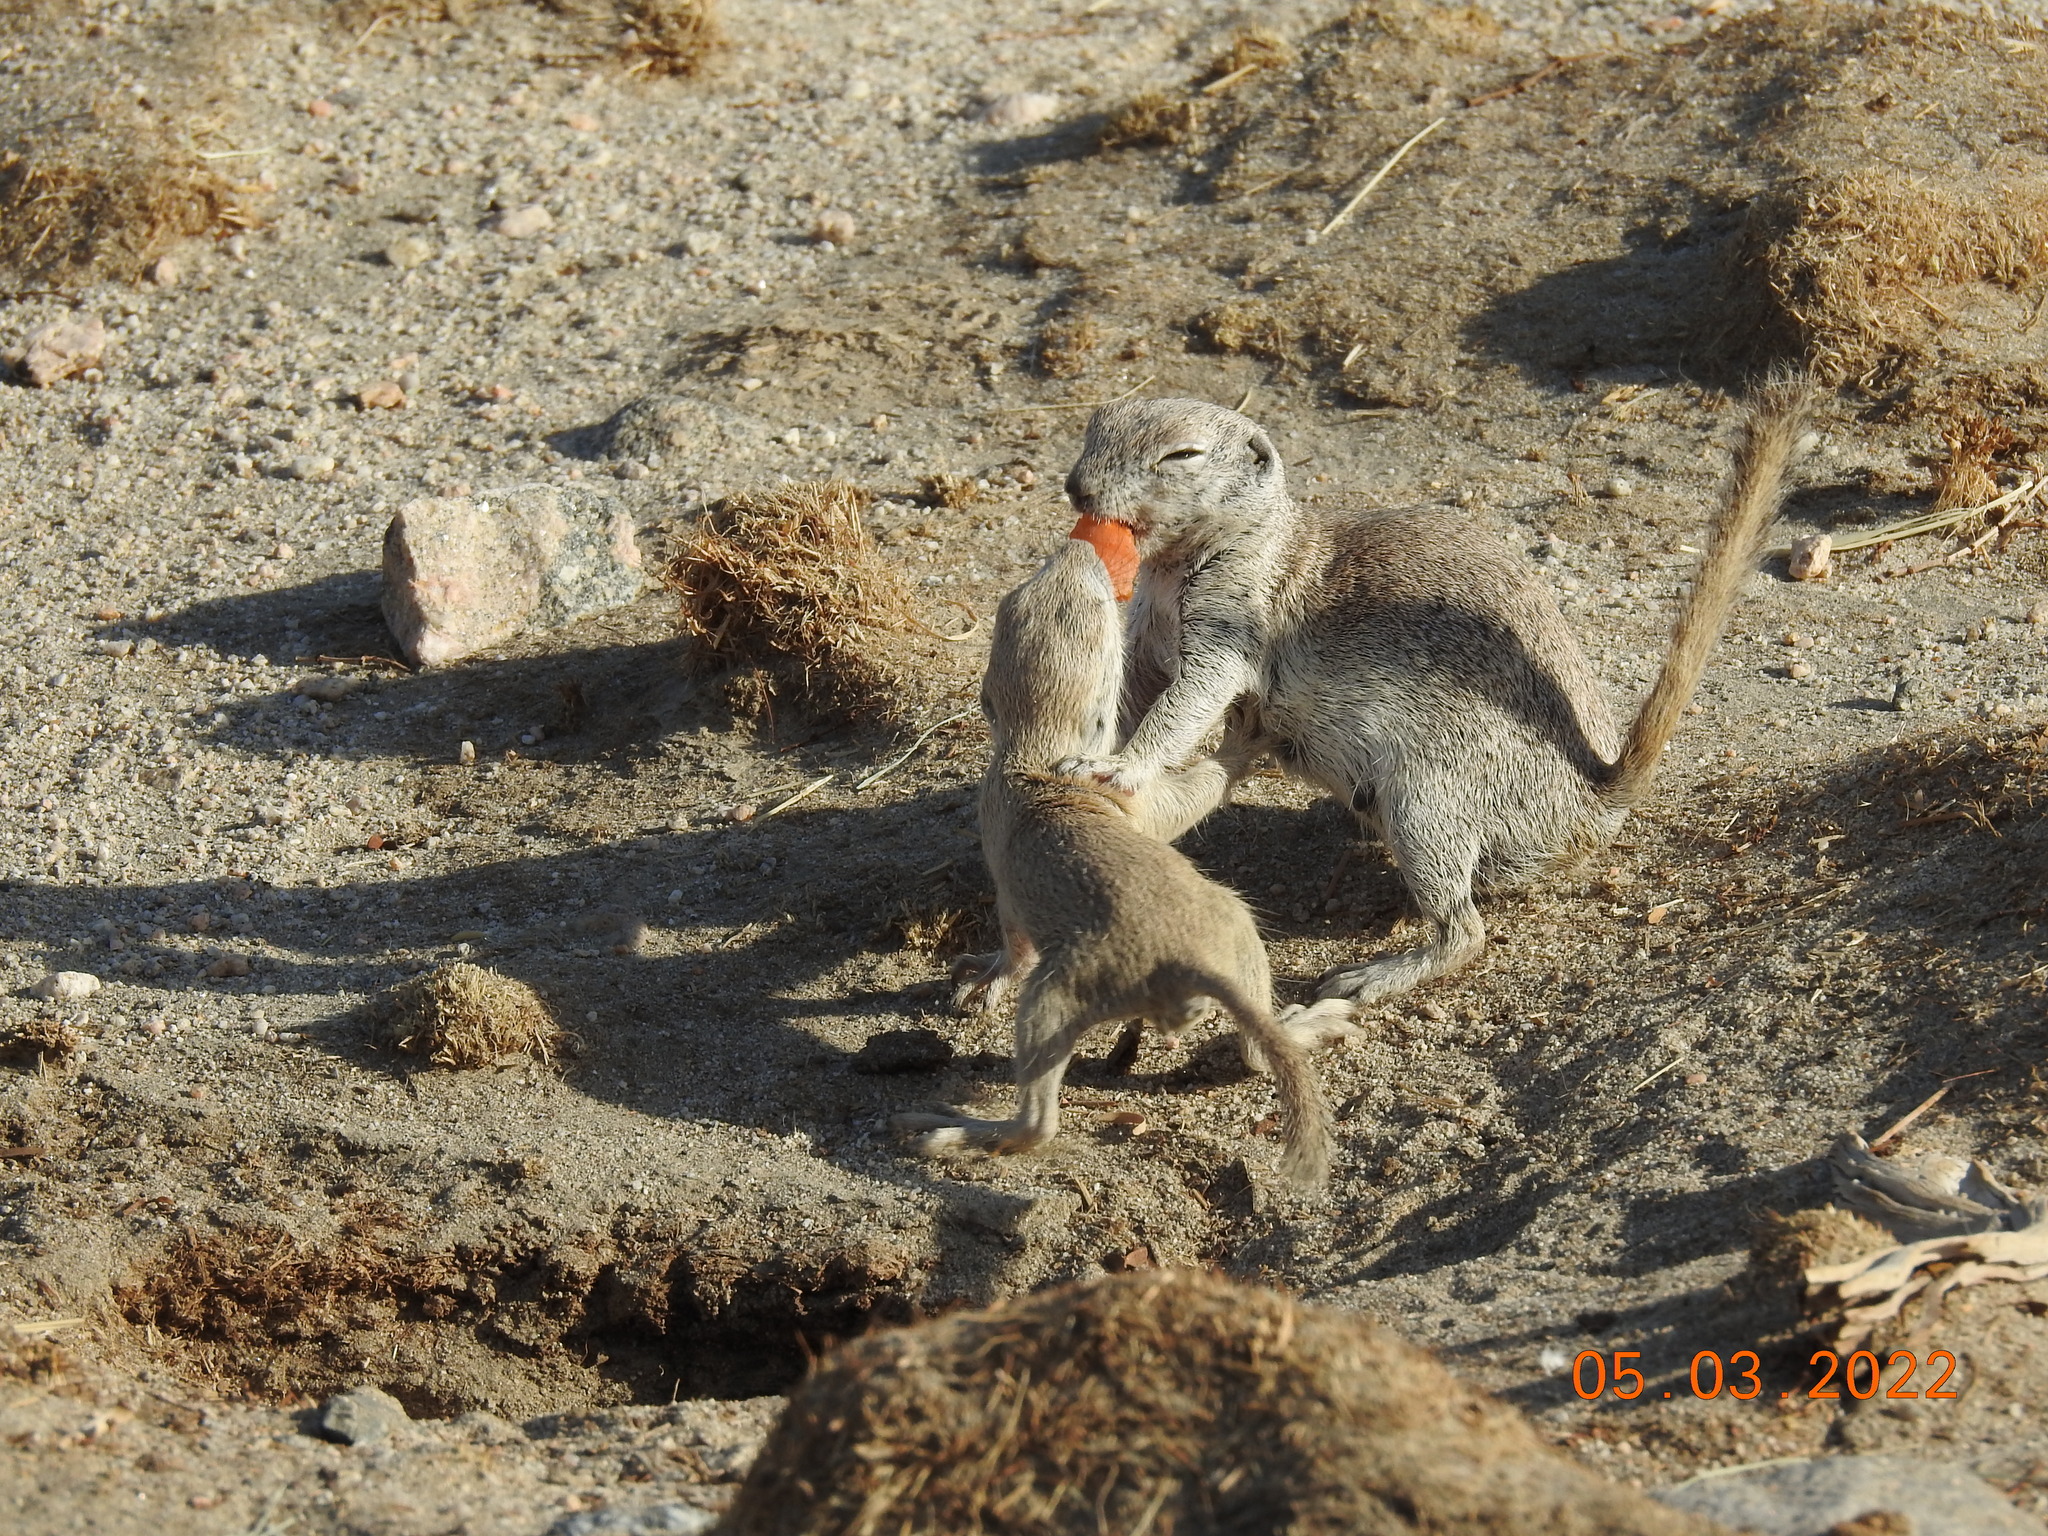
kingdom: Animalia
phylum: Chordata
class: Mammalia
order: Rodentia
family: Sciuridae
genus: Xerospermophilus
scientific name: Xerospermophilus tereticaudus
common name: Round-tailed ground squirrel
